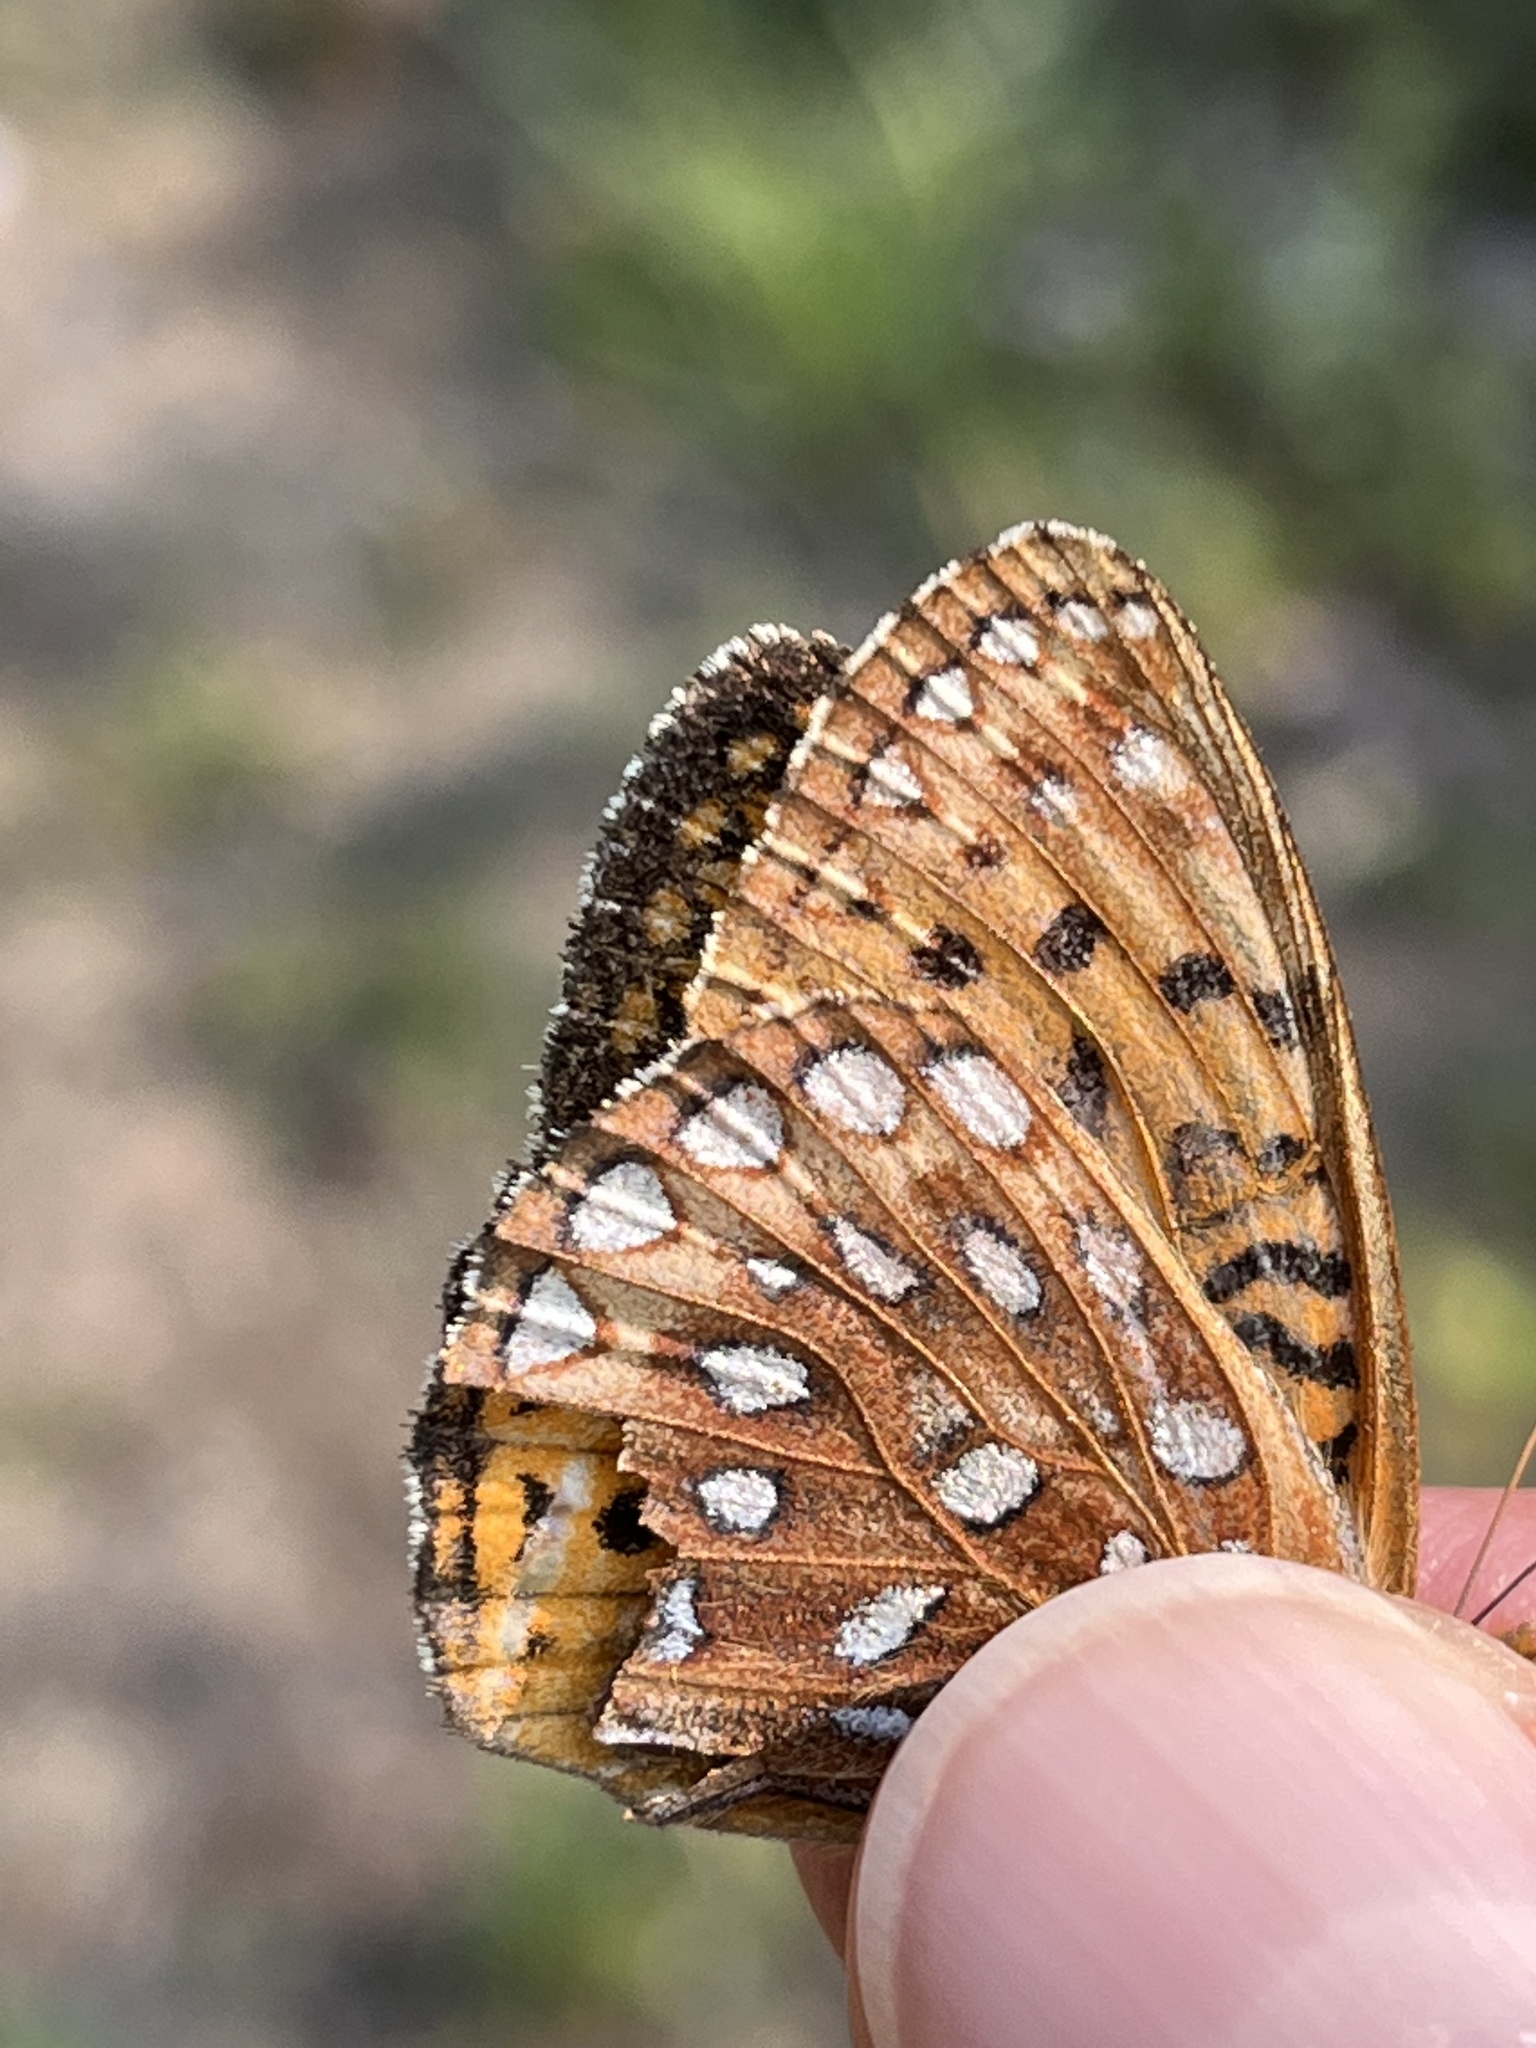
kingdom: Animalia
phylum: Arthropoda
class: Insecta
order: Lepidoptera
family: Nymphalidae
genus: Speyeria
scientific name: Speyeria atlantis
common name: Atlantis fritillary
